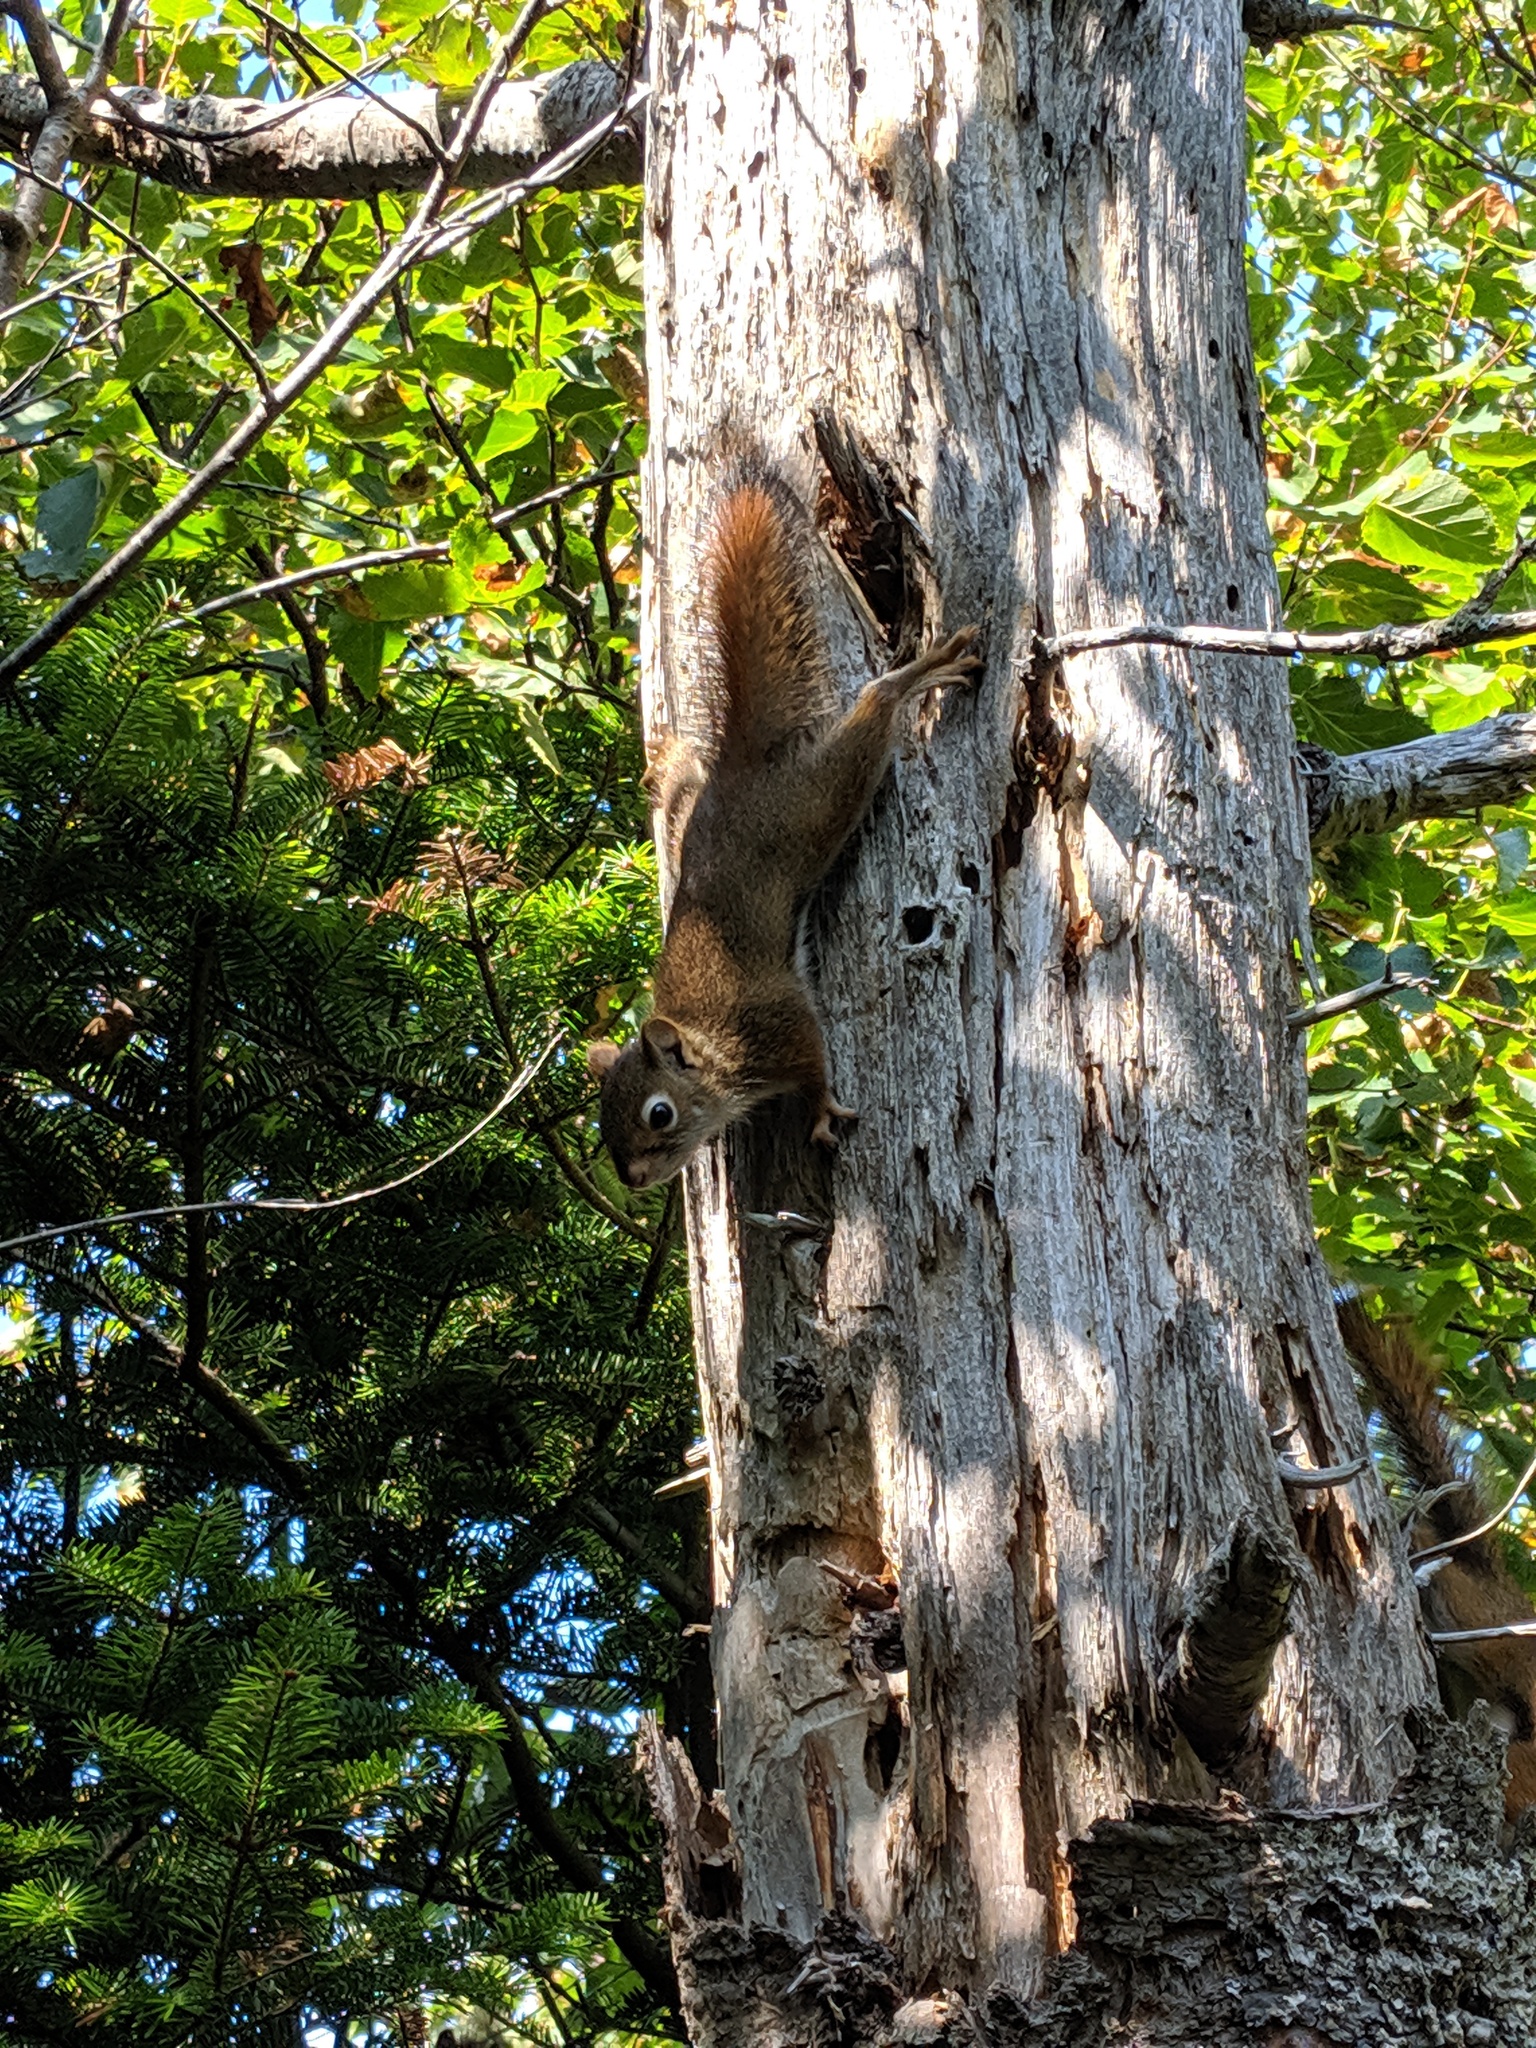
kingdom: Animalia
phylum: Chordata
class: Mammalia
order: Rodentia
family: Sciuridae
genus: Tamiasciurus
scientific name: Tamiasciurus hudsonicus
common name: Red squirrel
